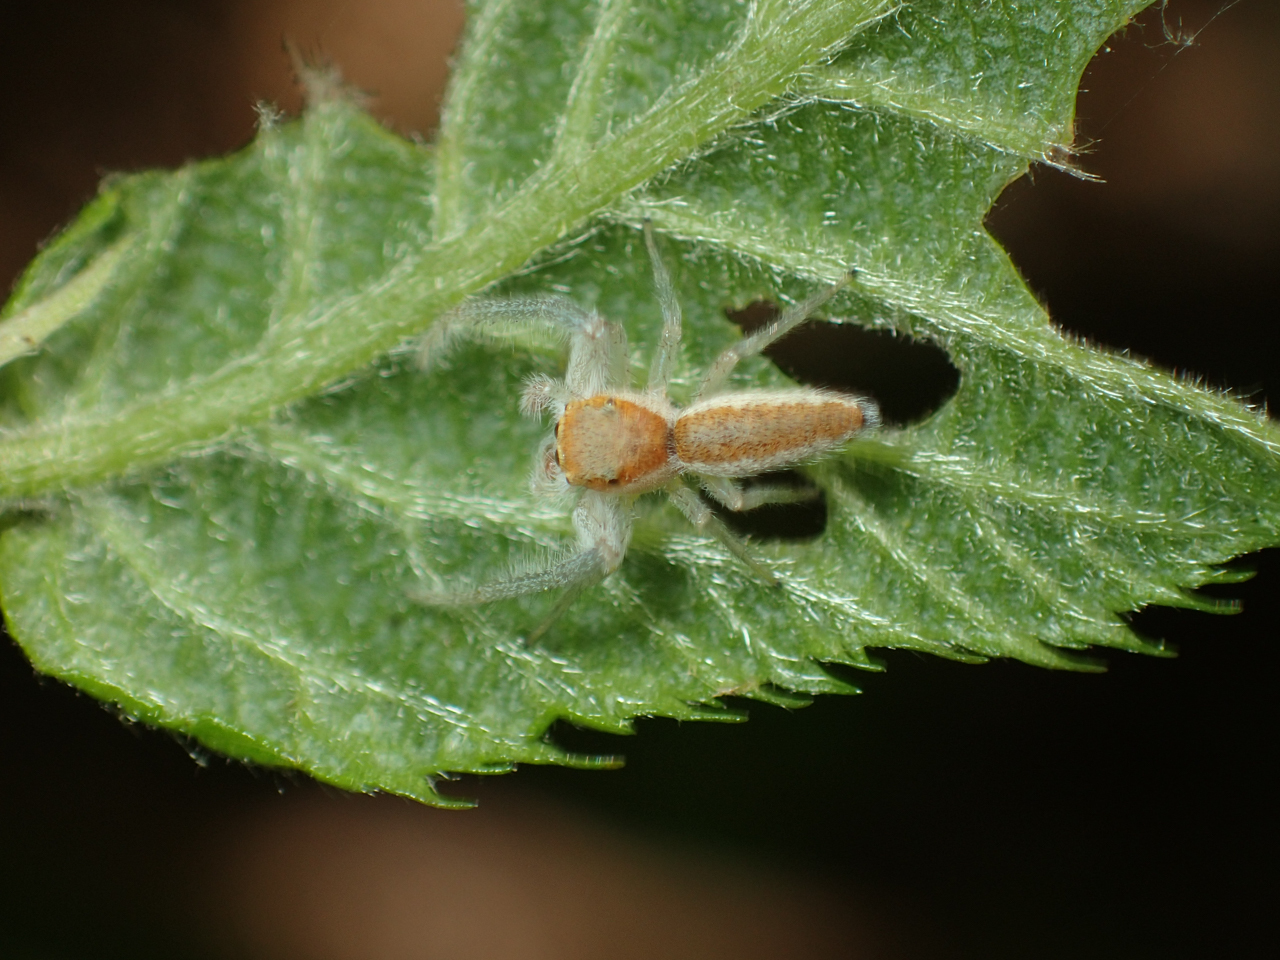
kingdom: Animalia
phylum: Arthropoda
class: Arachnida
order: Araneae
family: Salticidae
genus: Hentzia
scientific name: Hentzia mitrata
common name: White-jawed jumping spider
